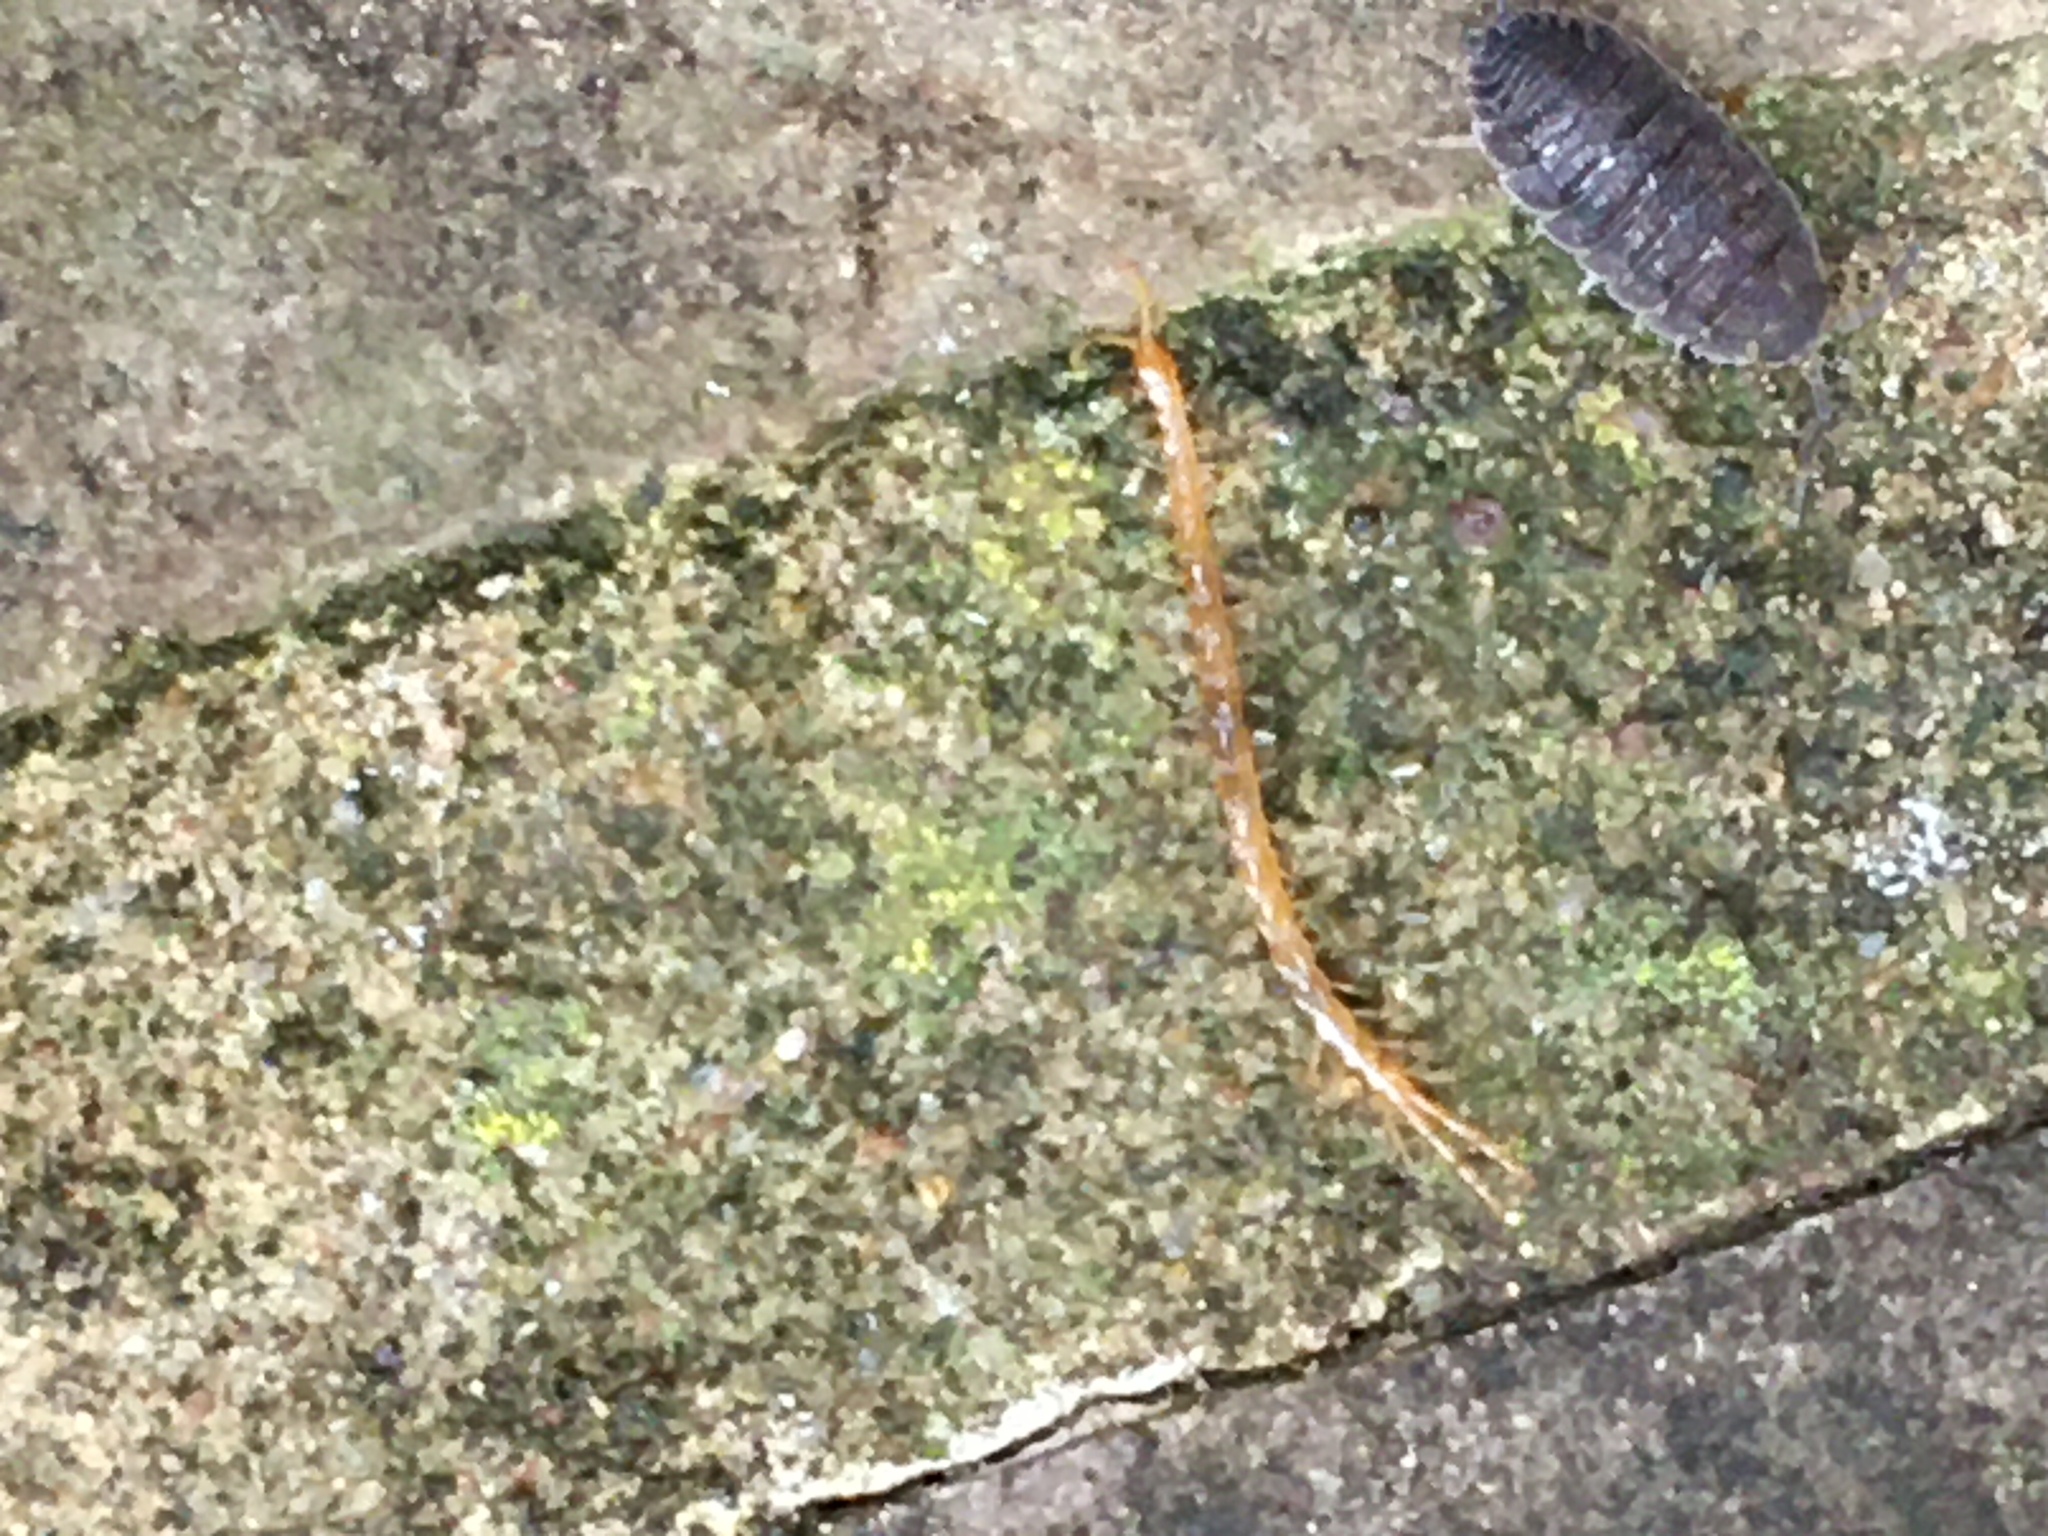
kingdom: Animalia
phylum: Arthropoda
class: Chilopoda
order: Scolopendromorpha
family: Cryptopidae
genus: Cryptops
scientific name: Cryptops
